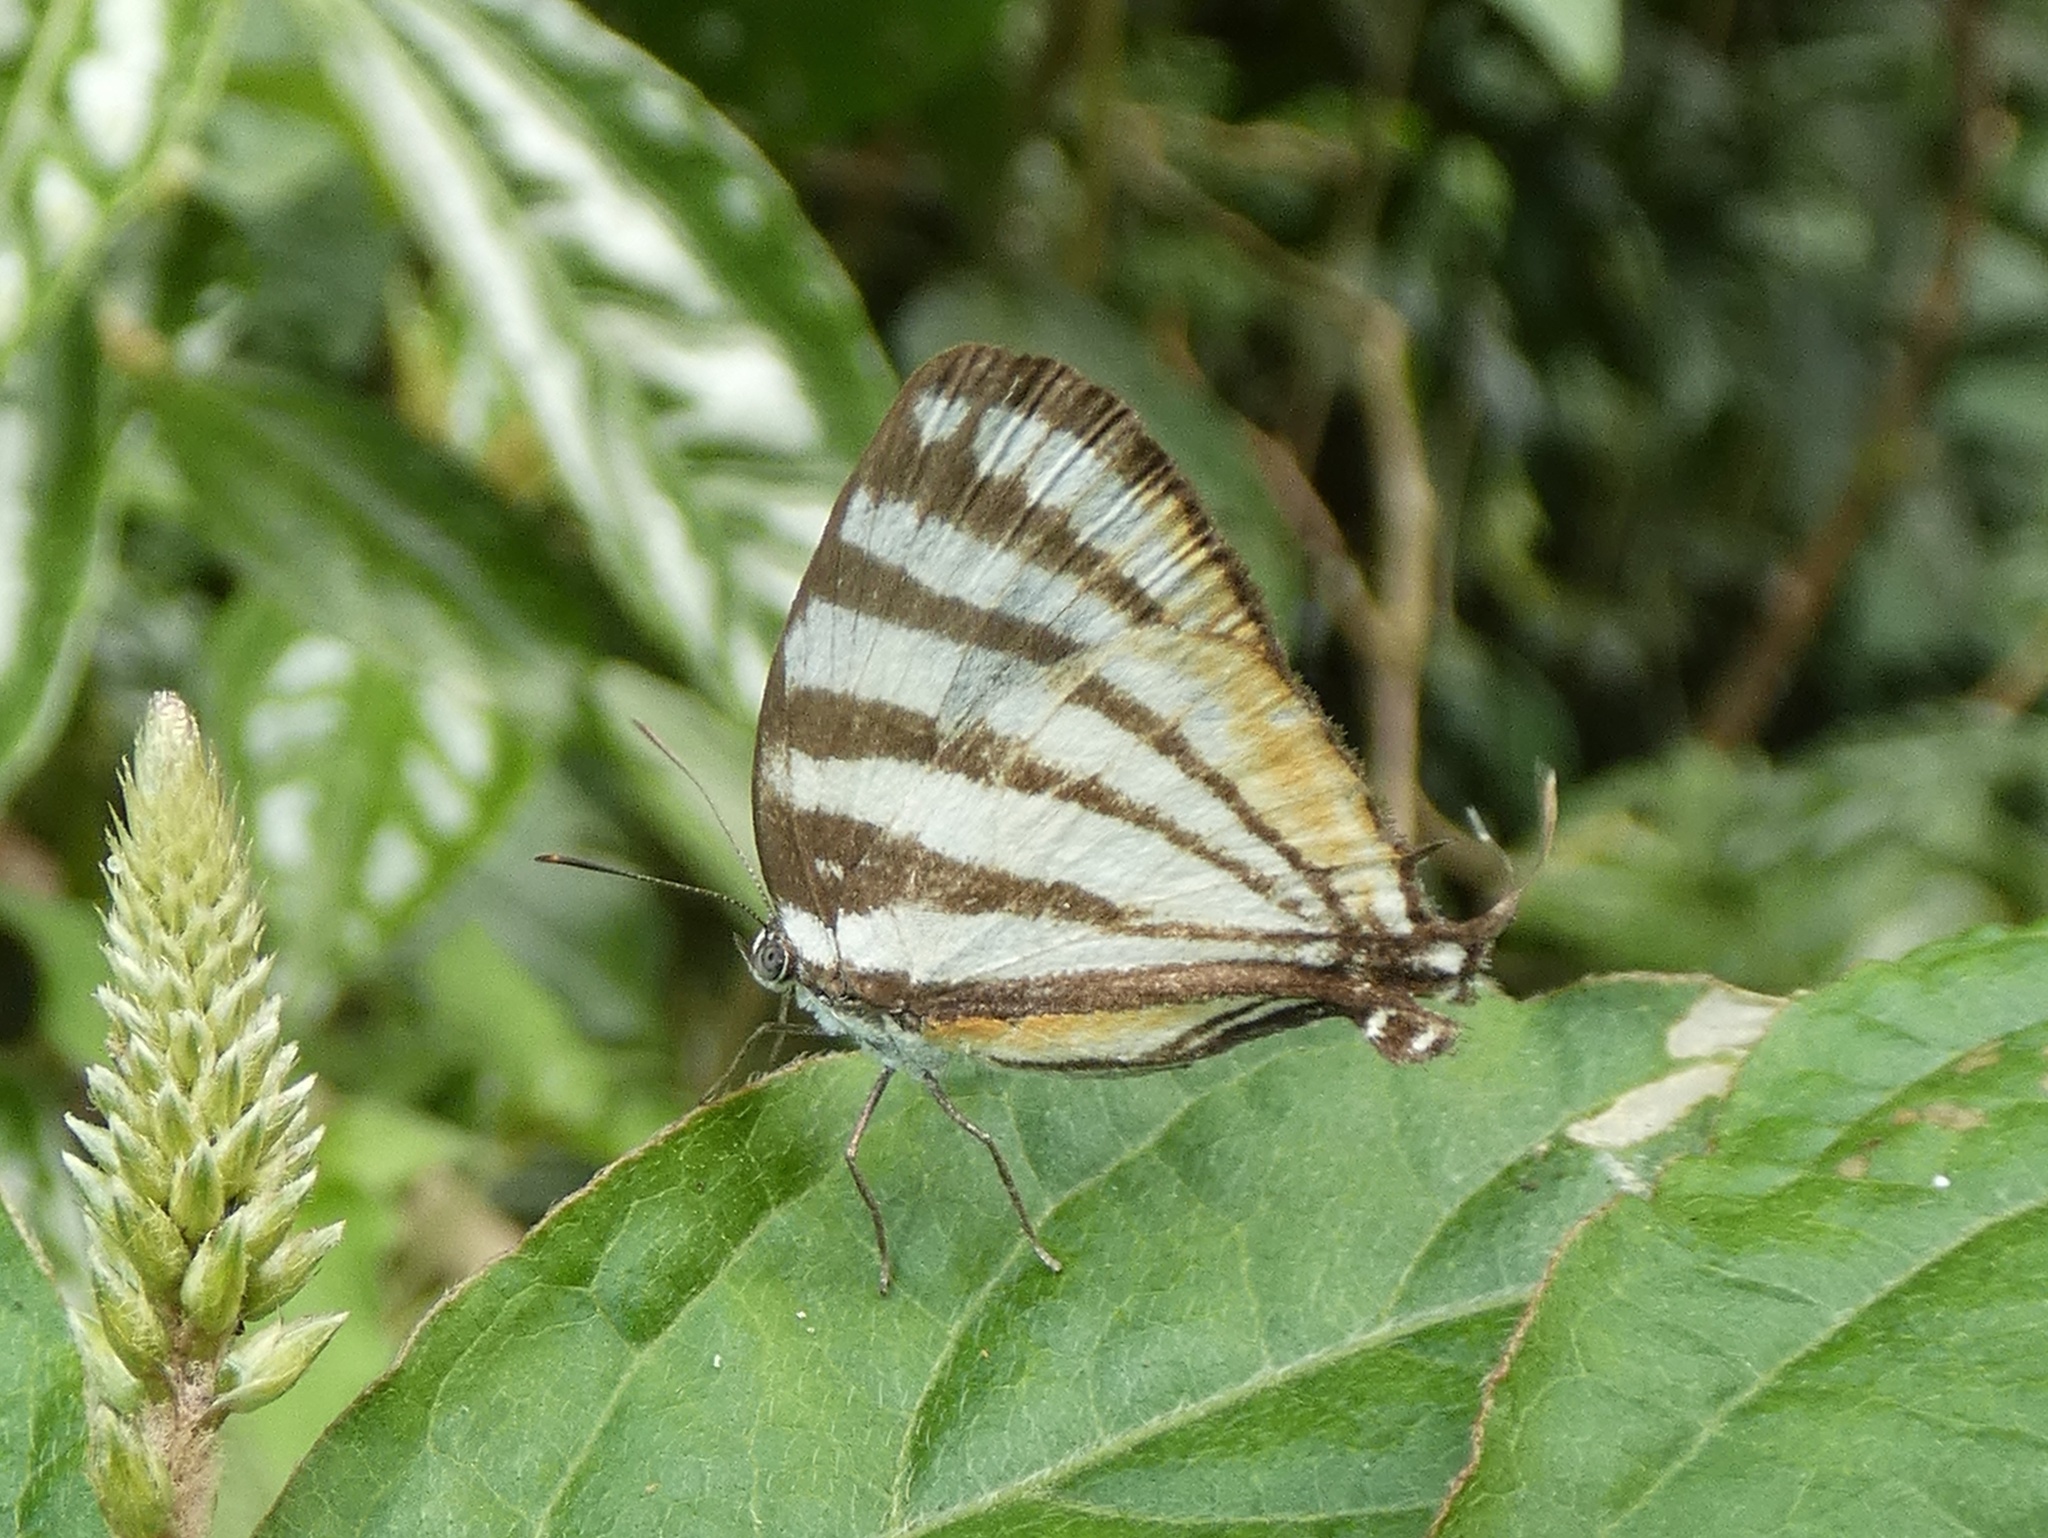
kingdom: Animalia
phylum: Arthropoda
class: Insecta
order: Lepidoptera
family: Lycaenidae
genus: Arawacus
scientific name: Arawacus lincoides
